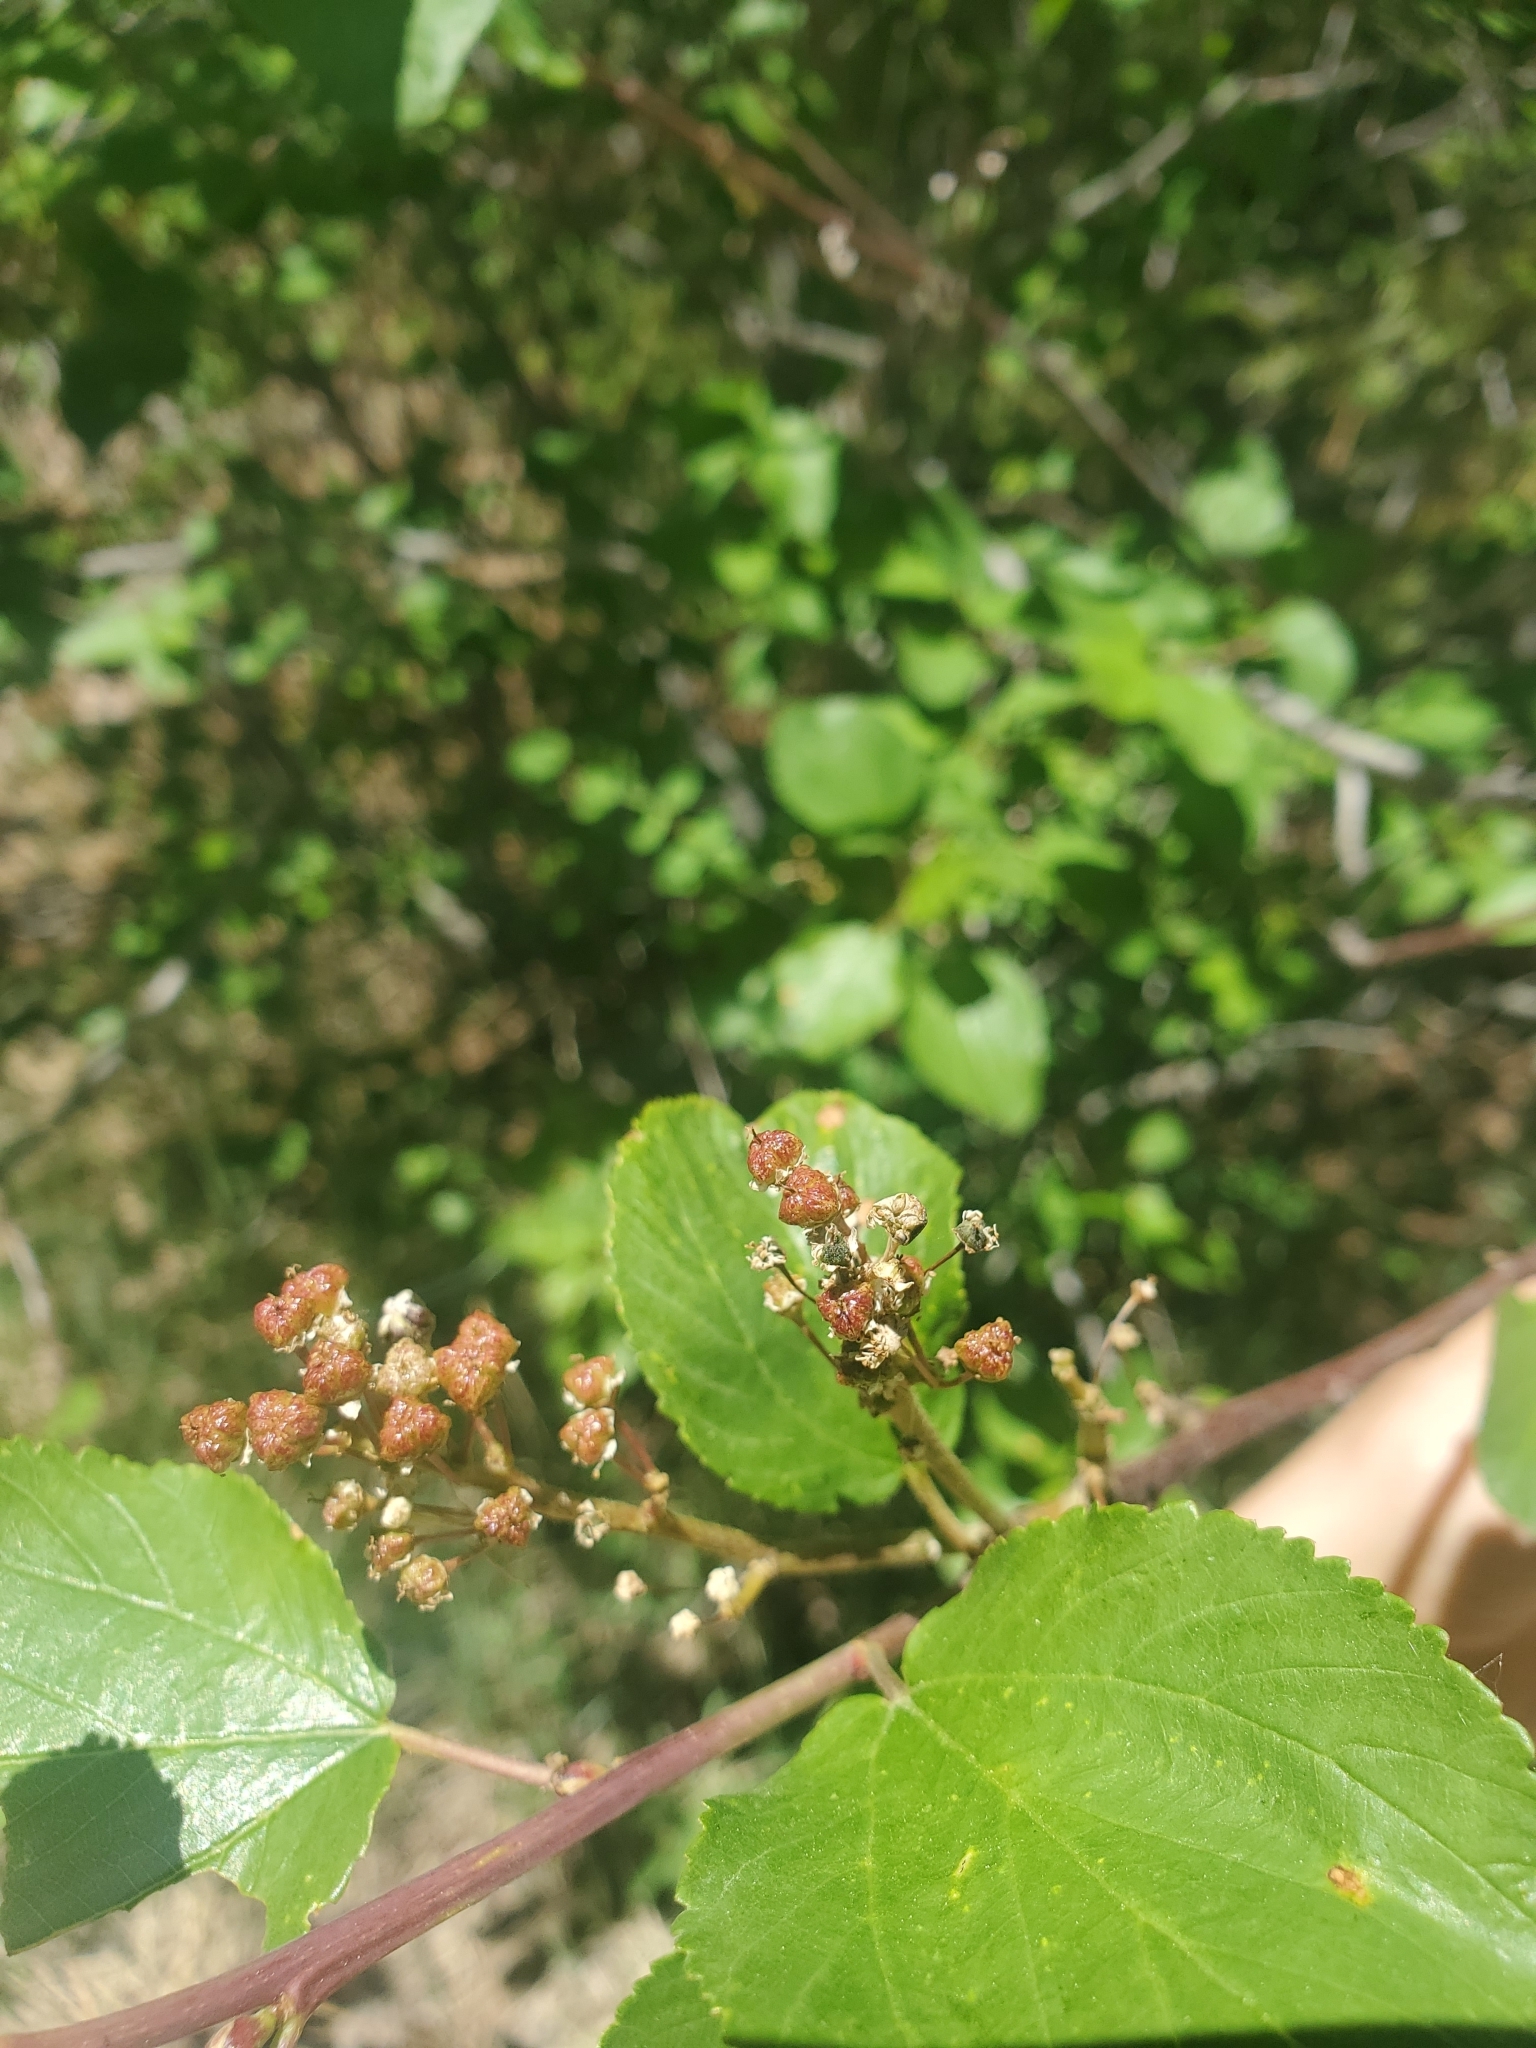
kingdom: Plantae
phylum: Tracheophyta
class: Magnoliopsida
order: Rosales
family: Rhamnaceae
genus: Ceanothus
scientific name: Ceanothus velutinus
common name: Snowbrush
